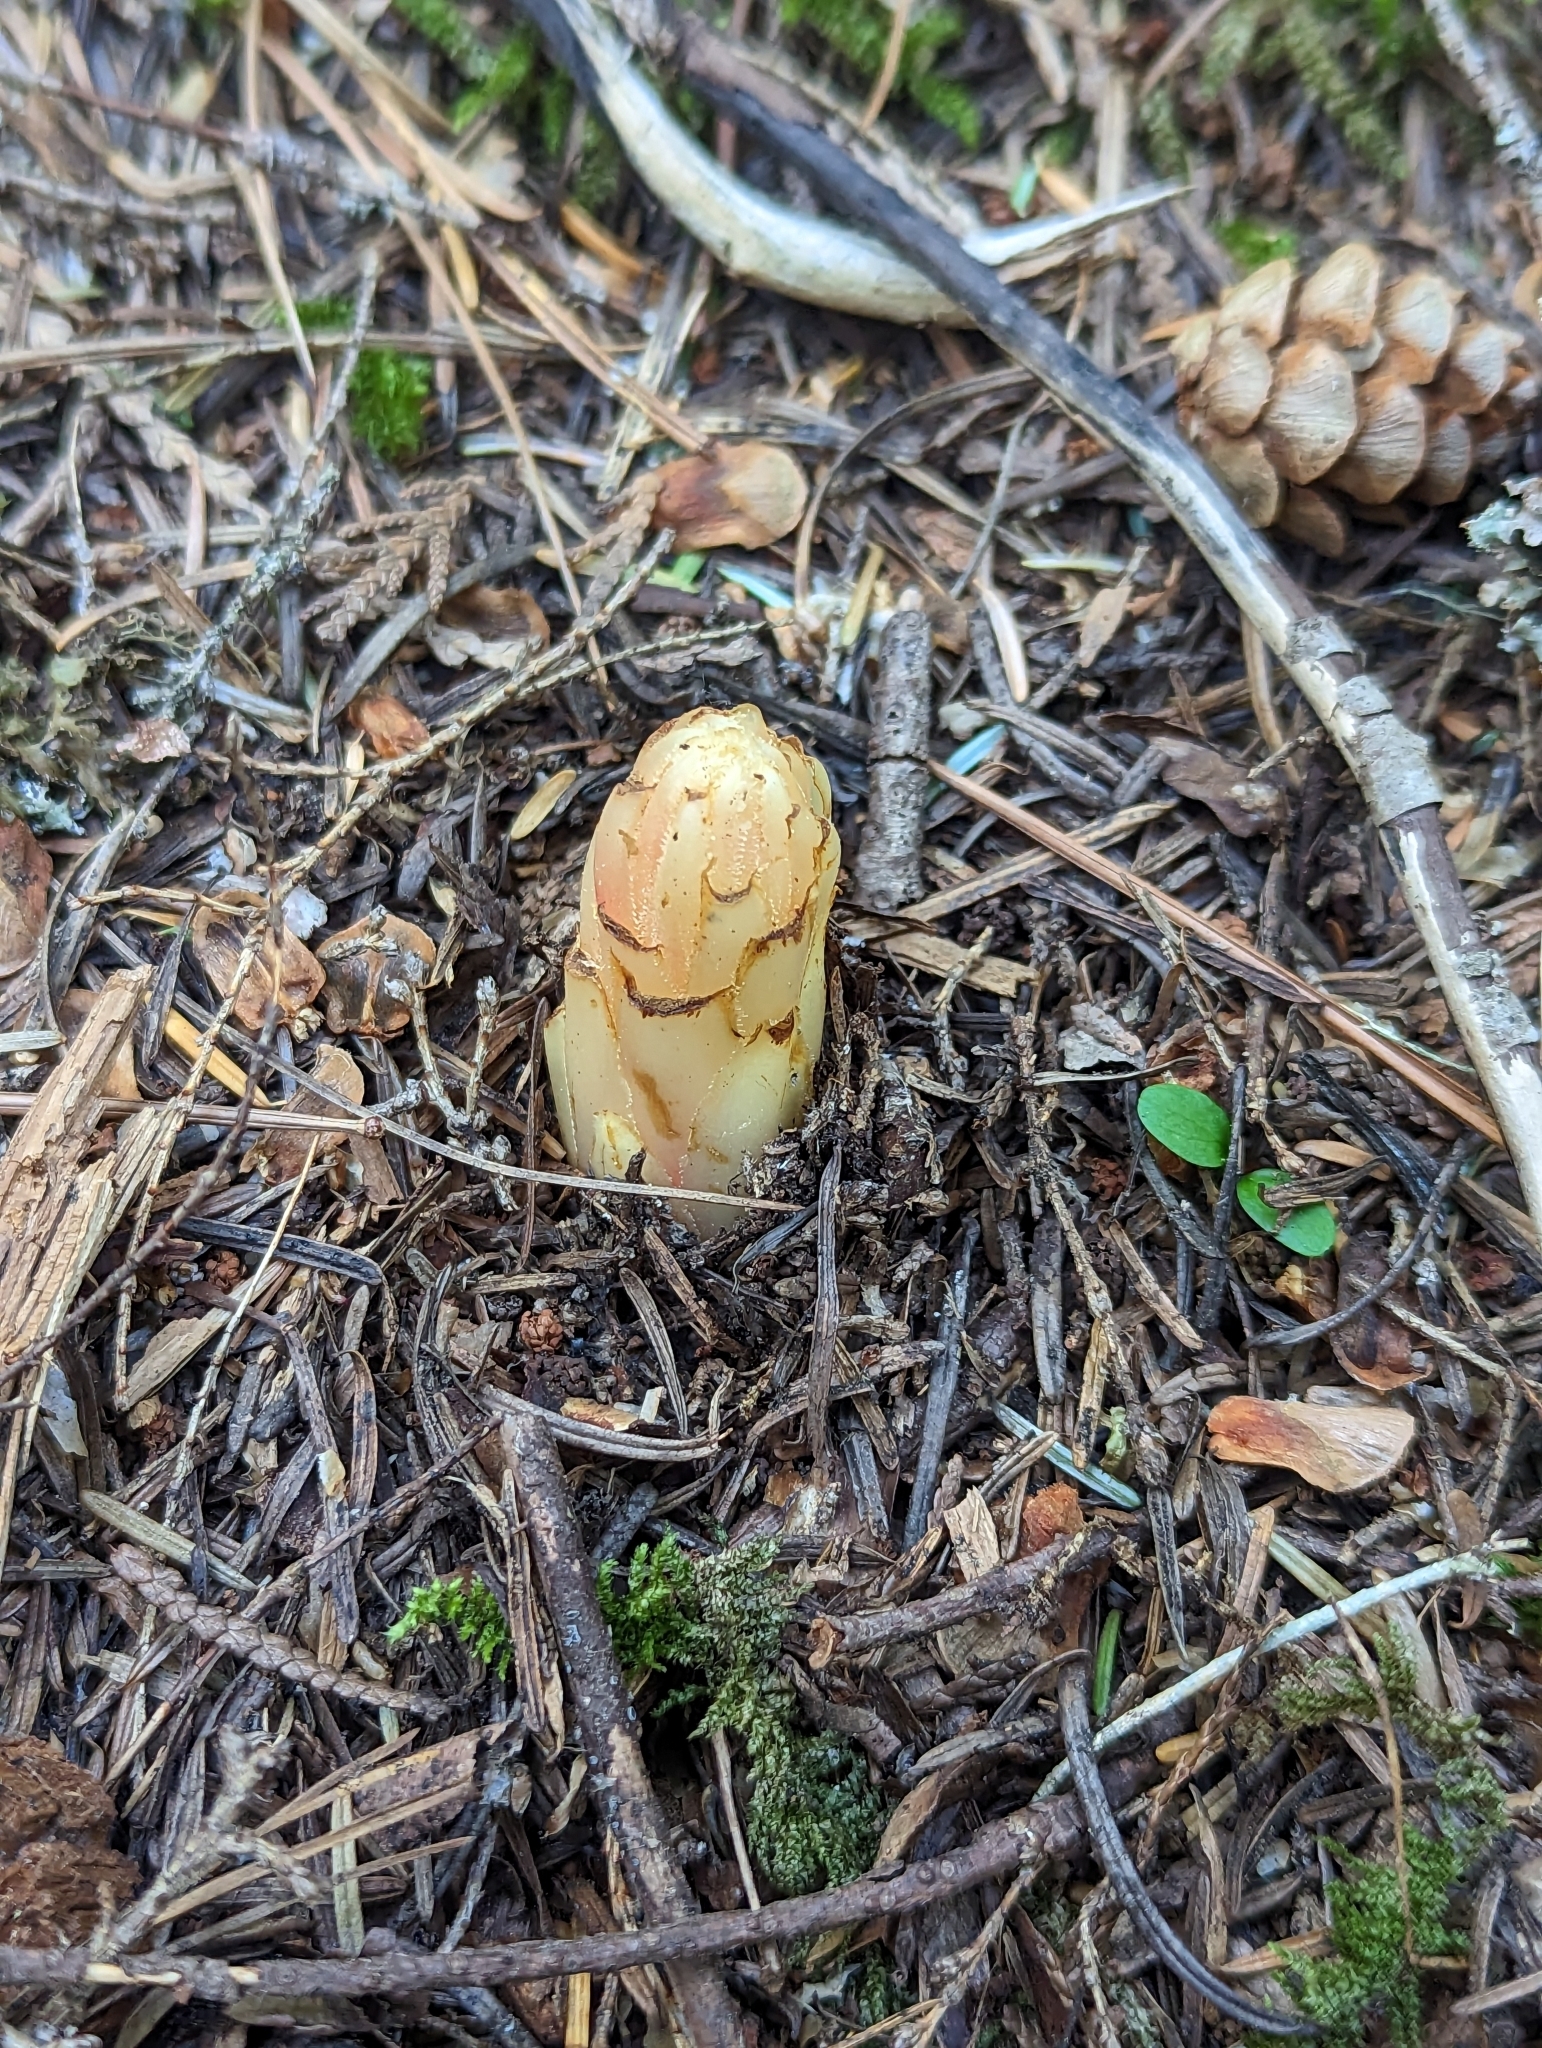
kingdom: Plantae
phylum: Tracheophyta
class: Magnoliopsida
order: Ericales
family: Ericaceae
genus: Pterospora
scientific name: Pterospora andromedea
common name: Giant bird's-nest
